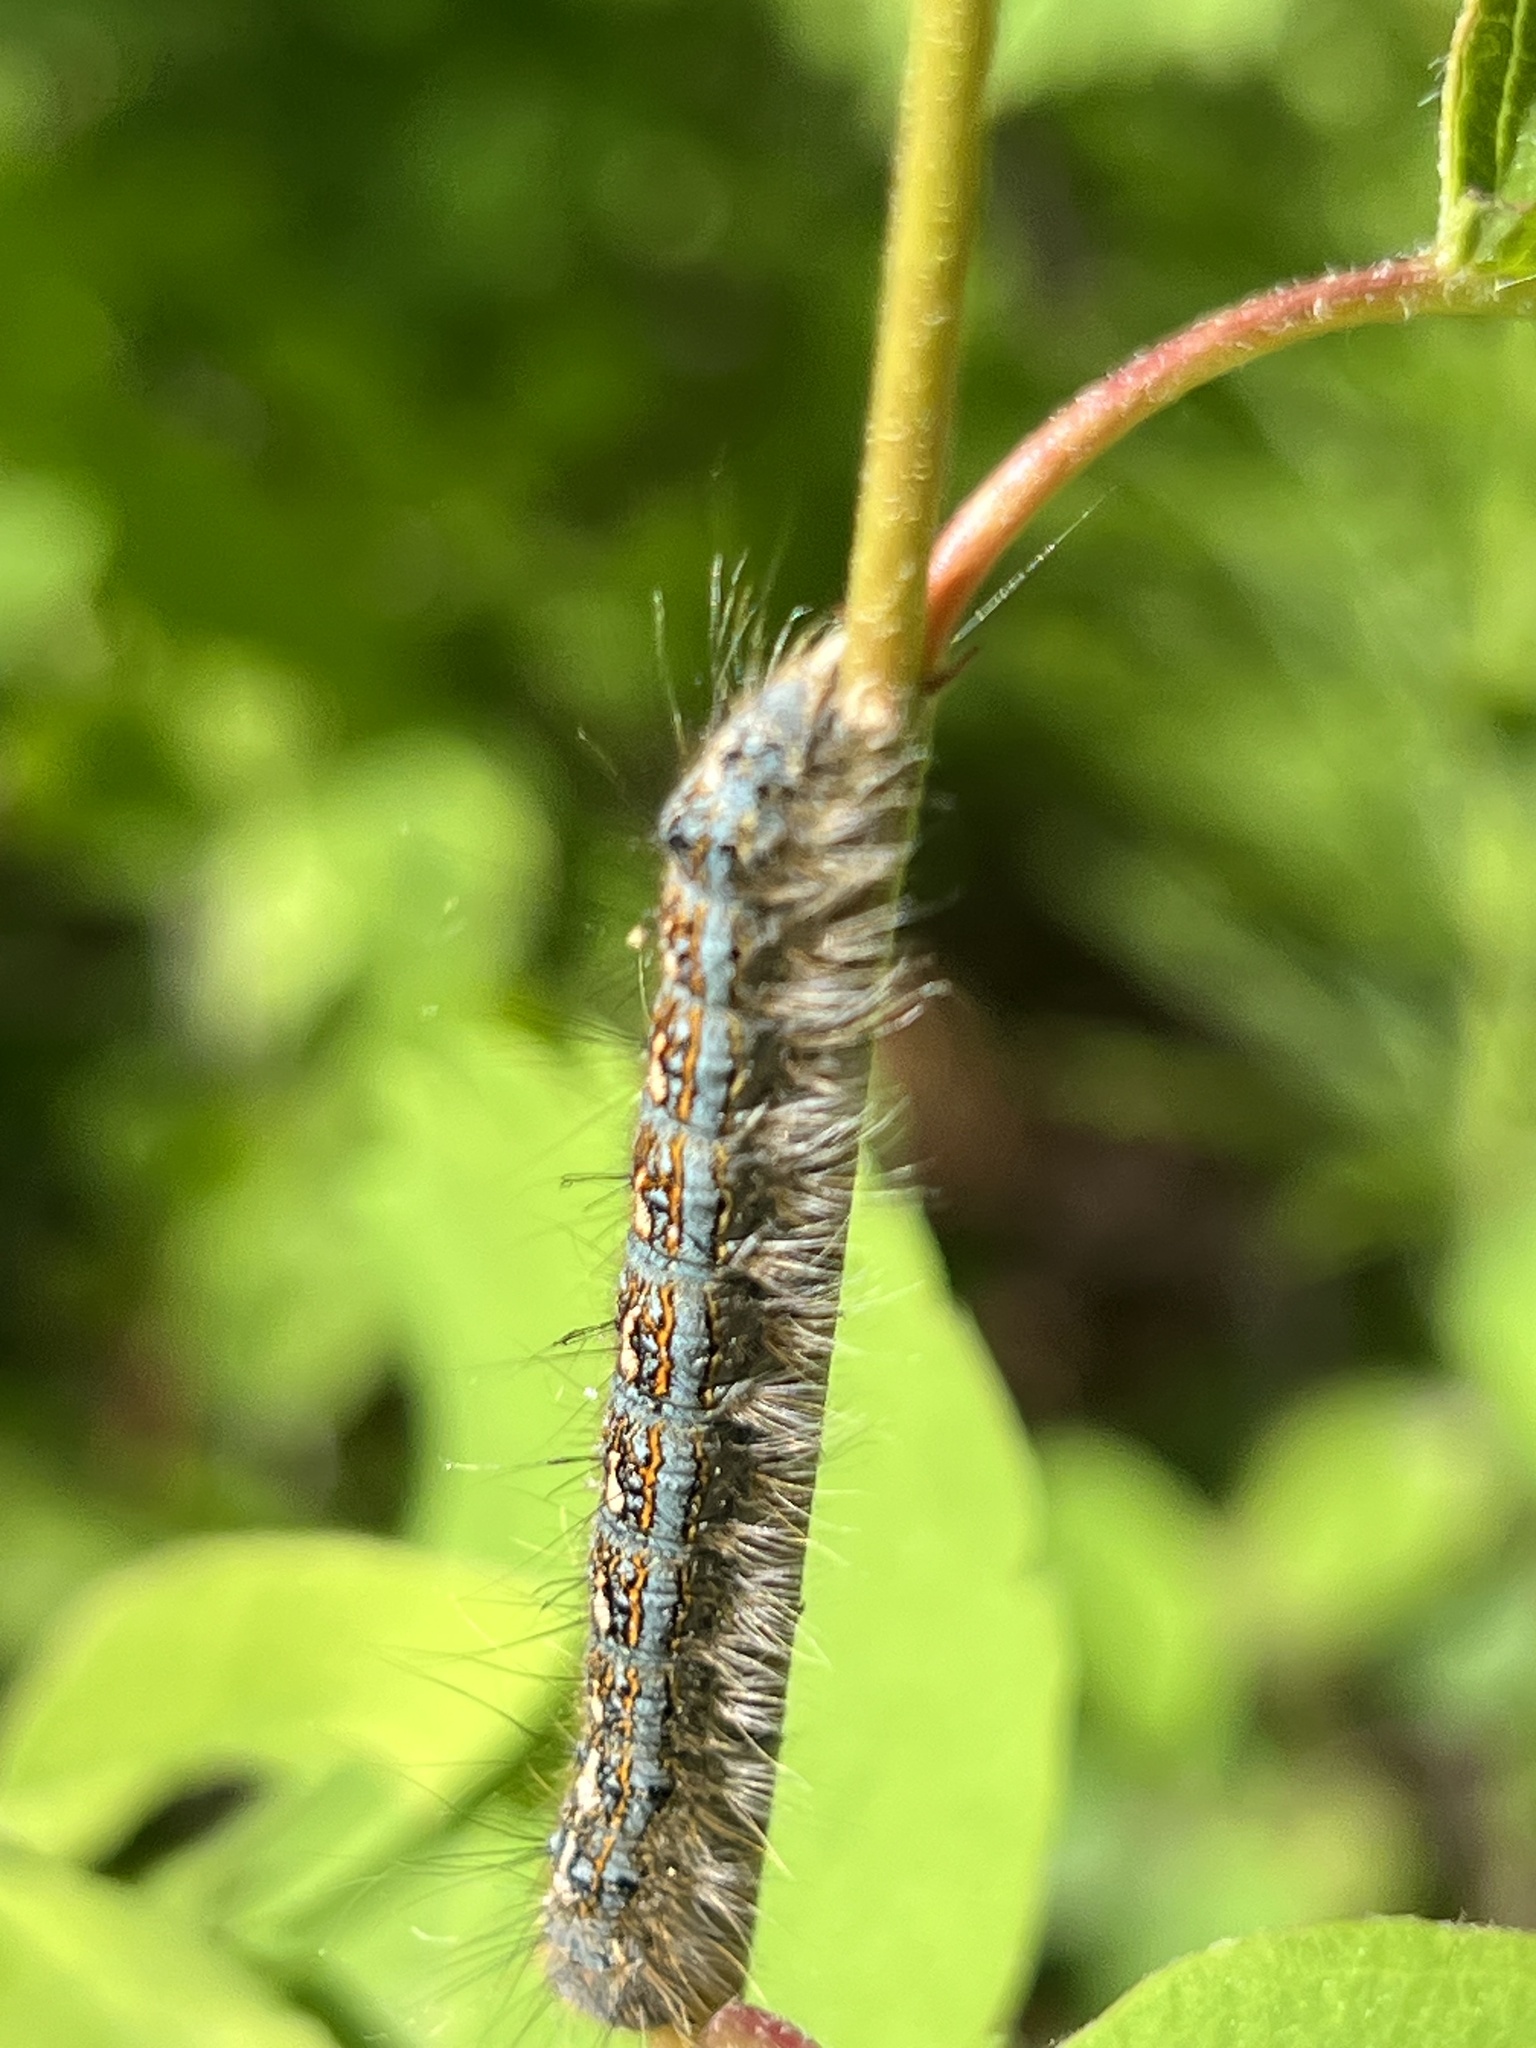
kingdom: Animalia
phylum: Arthropoda
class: Insecta
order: Lepidoptera
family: Lasiocampidae
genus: Malacosoma
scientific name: Malacosoma disstria
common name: Forest tent caterpillar
